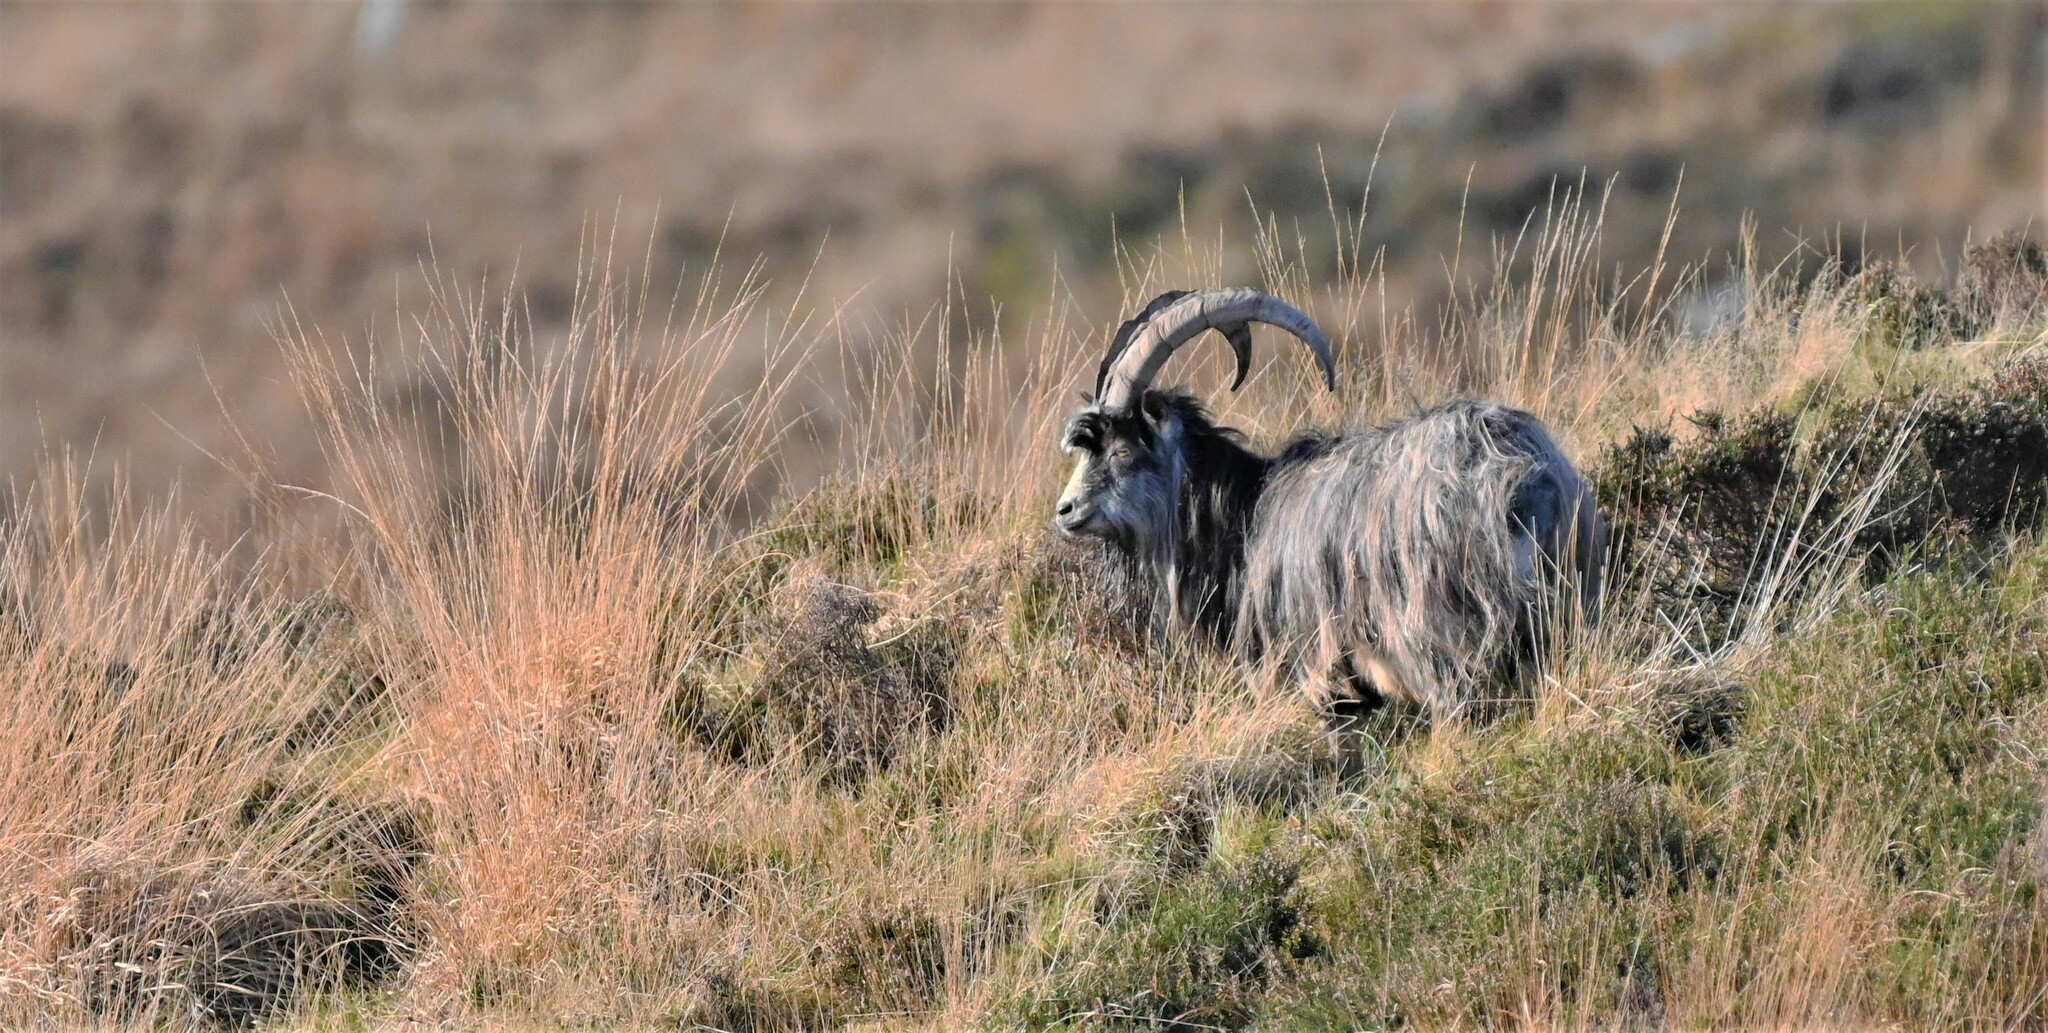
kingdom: Animalia
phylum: Chordata
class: Mammalia
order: Artiodactyla
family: Bovidae
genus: Capra
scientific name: Capra hircus
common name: Domestic goat
